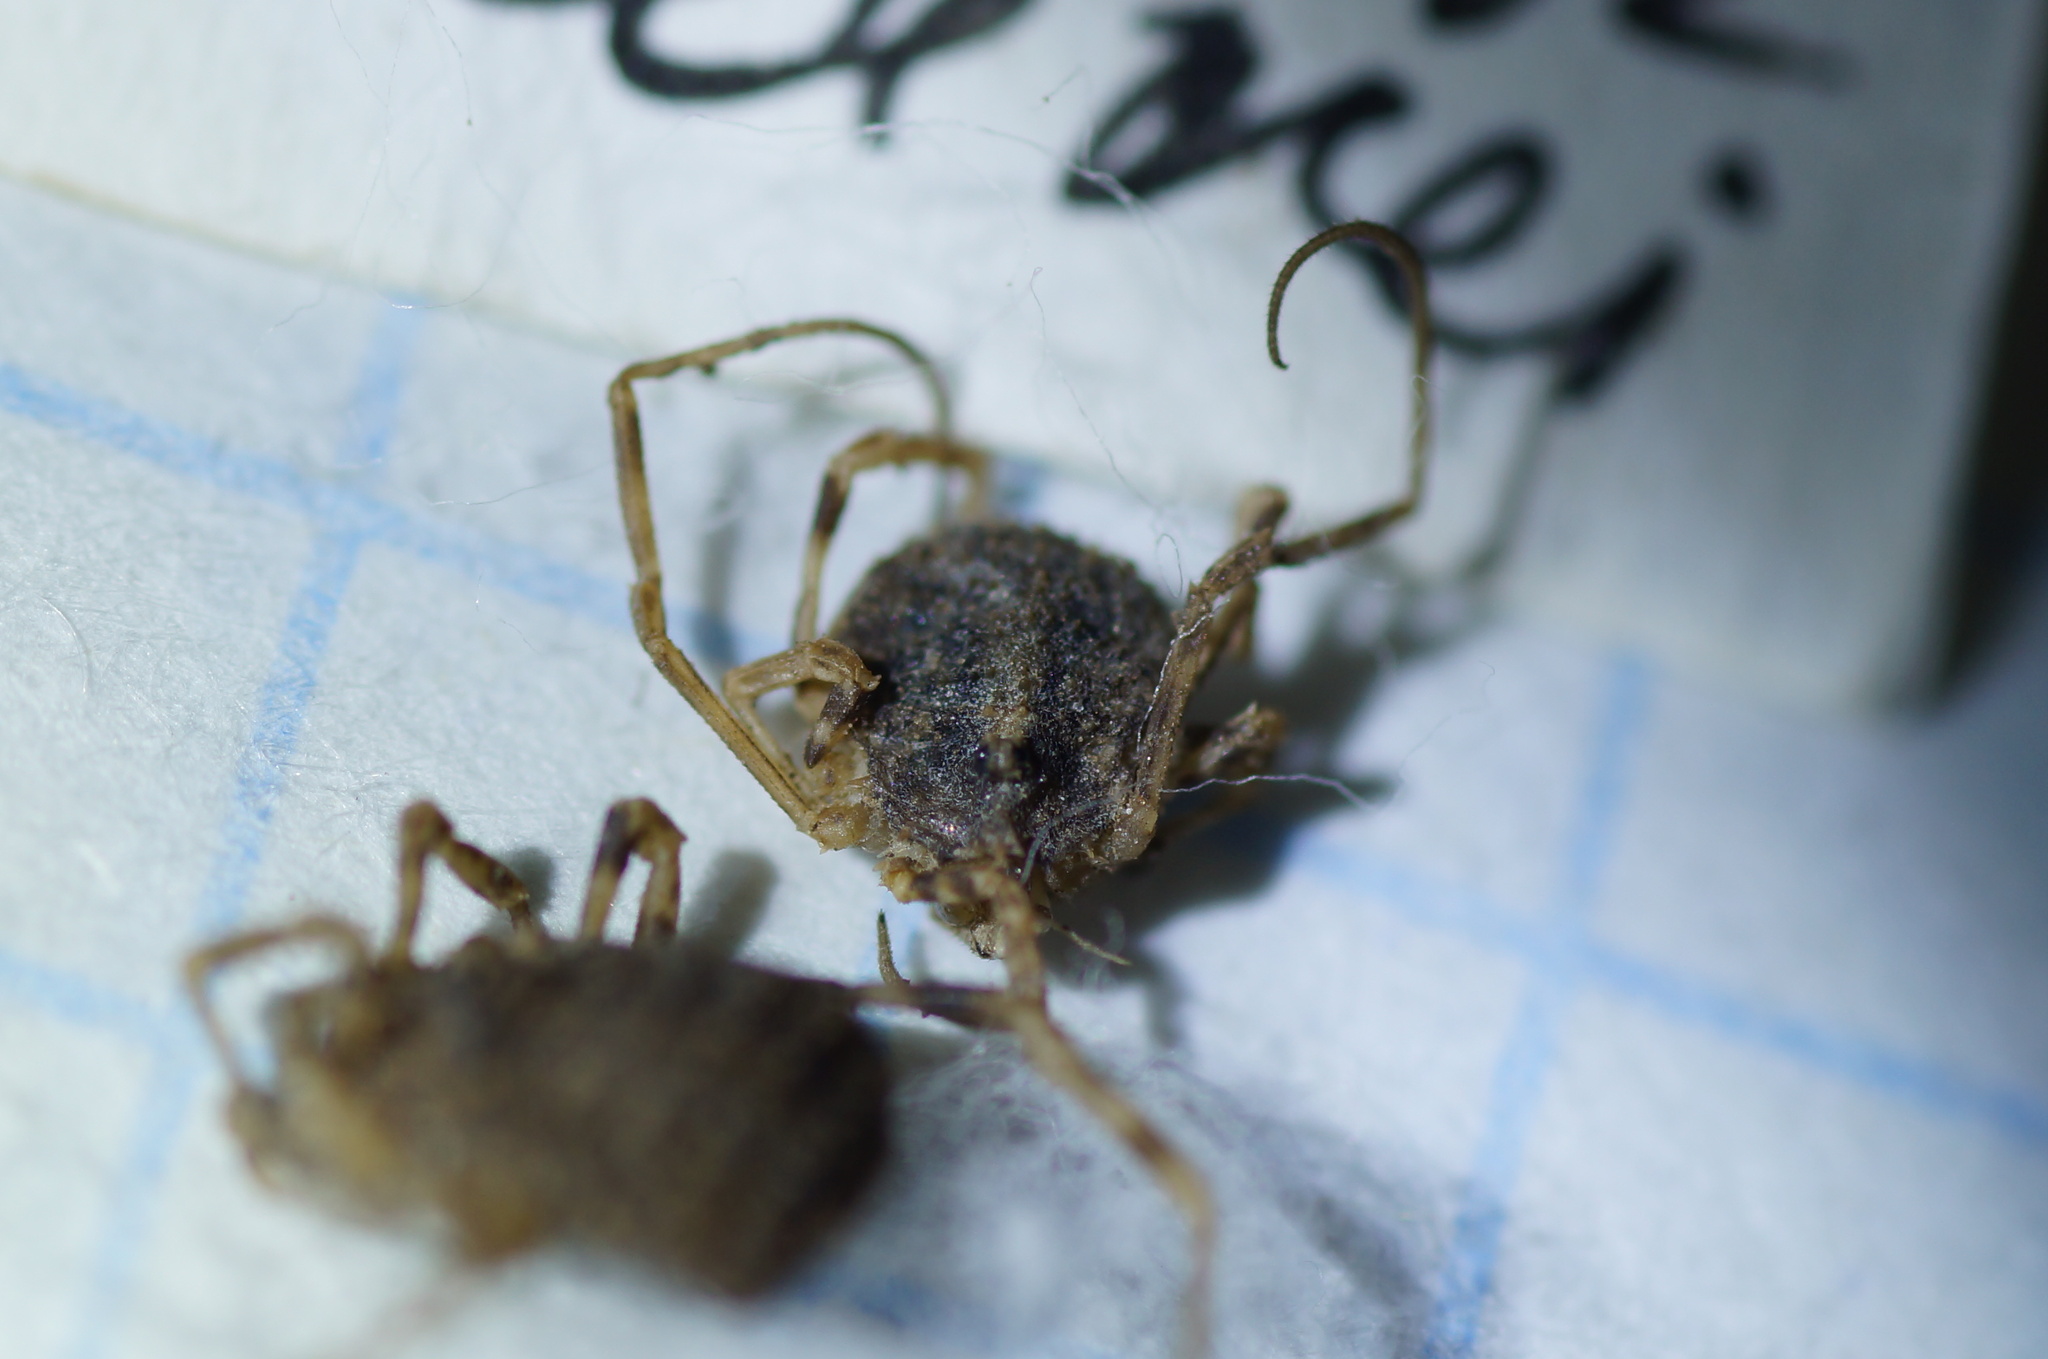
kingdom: Animalia
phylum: Arthropoda
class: Arachnida
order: Opiliones
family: Phalangiidae
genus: Odiellus
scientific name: Odiellus lendlii
